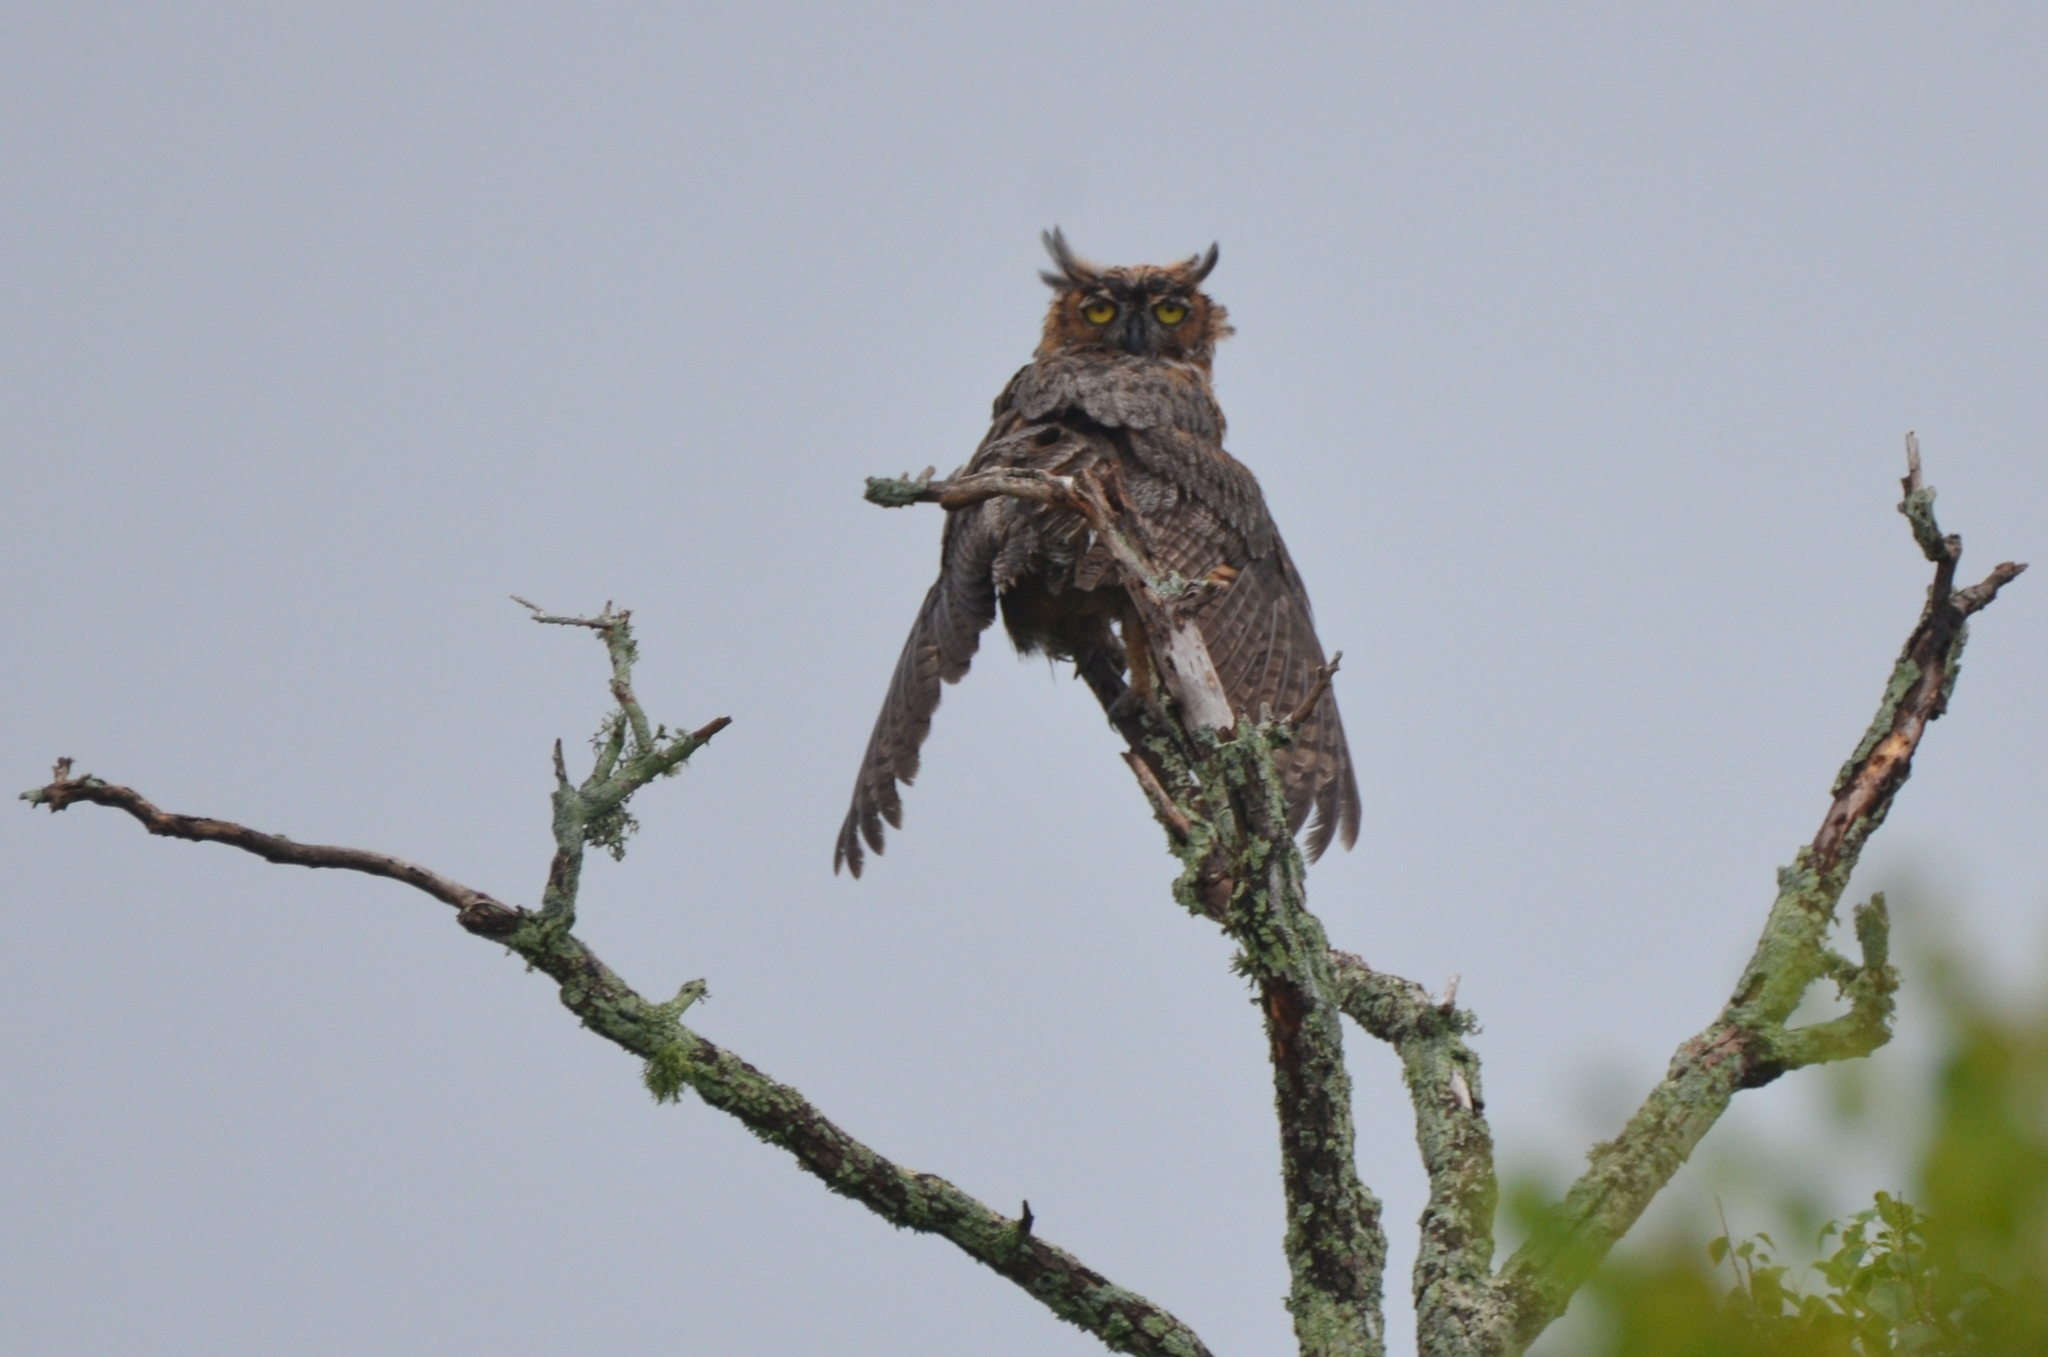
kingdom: Animalia
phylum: Chordata
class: Aves
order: Strigiformes
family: Strigidae
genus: Bubo
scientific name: Bubo virginianus
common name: Great horned owl
